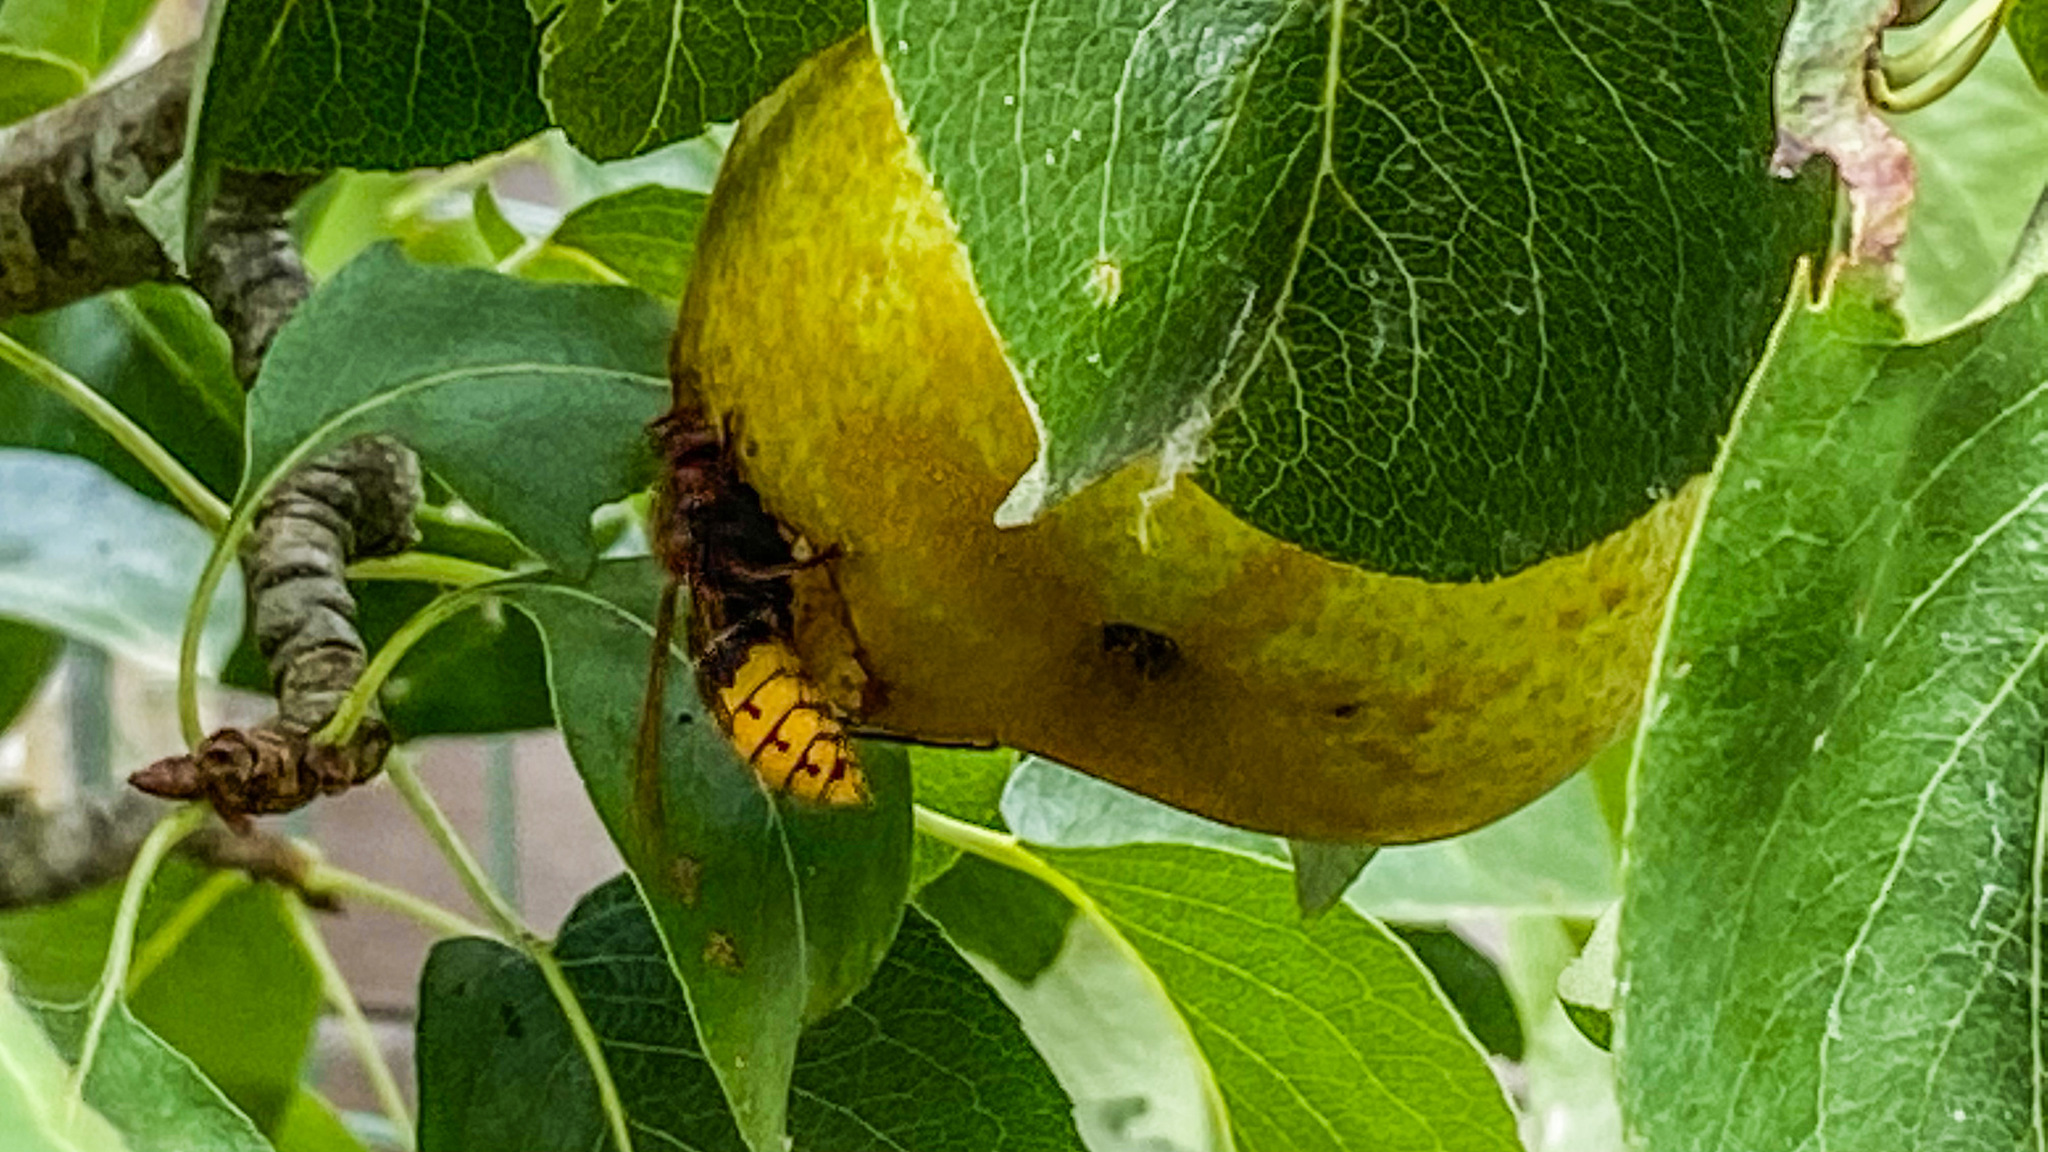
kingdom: Animalia
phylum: Arthropoda
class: Insecta
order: Hymenoptera
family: Vespidae
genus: Vespa
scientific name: Vespa crabro
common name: Hornet
